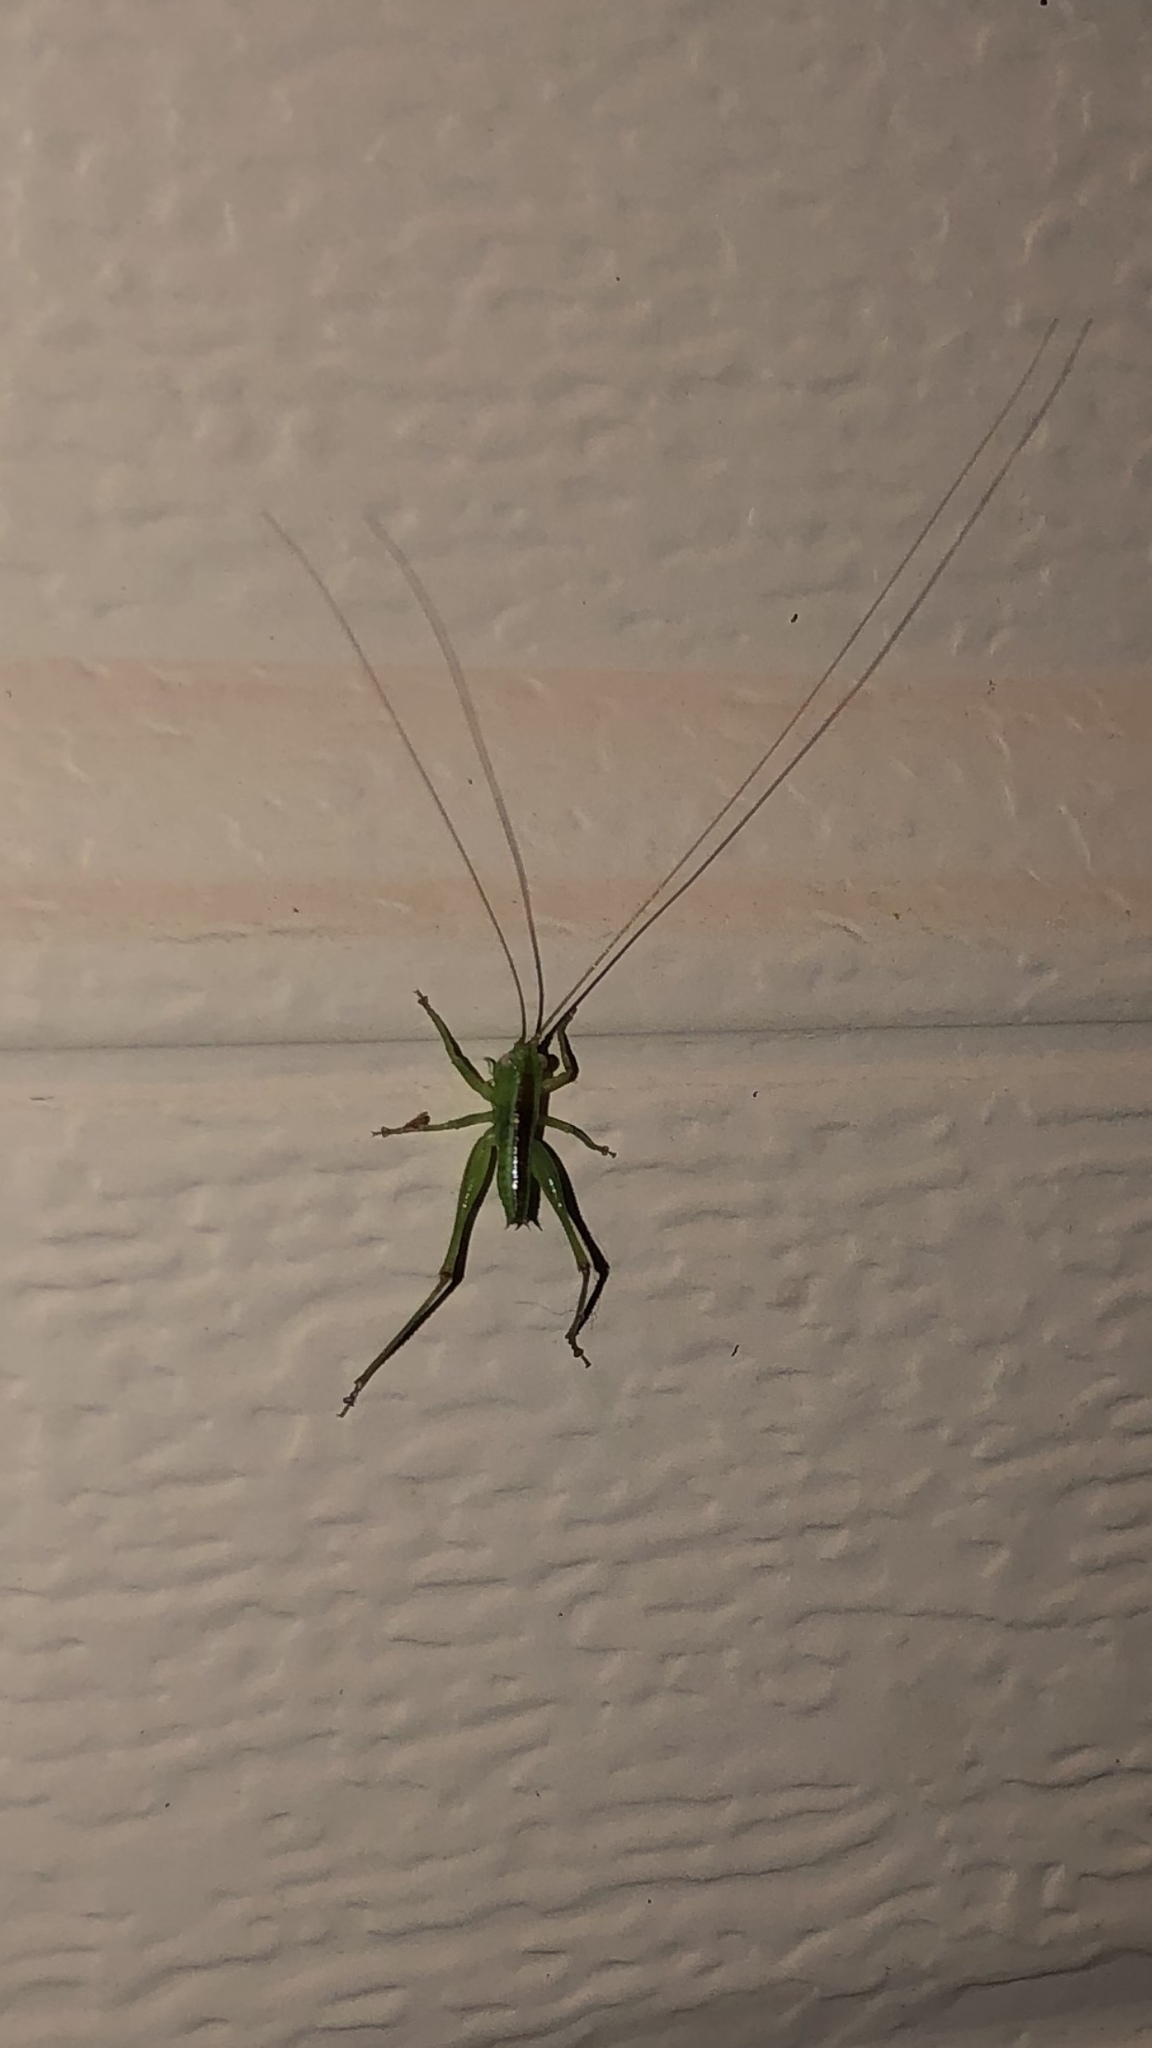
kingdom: Animalia
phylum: Arthropoda
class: Insecta
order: Orthoptera
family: Tettigoniidae
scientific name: Tettigoniidae
